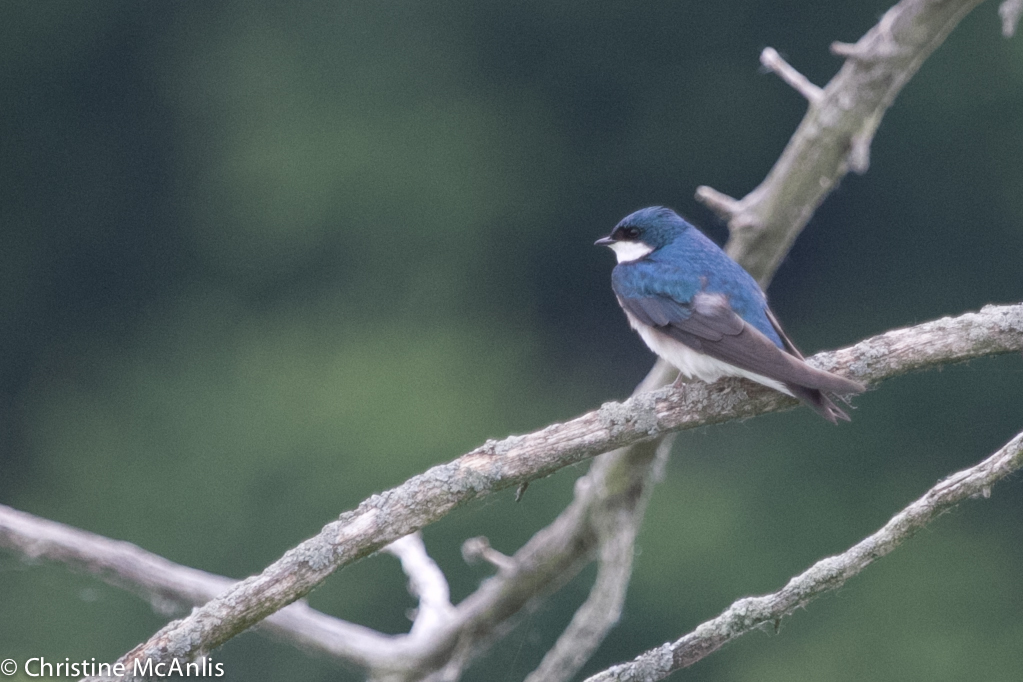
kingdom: Animalia
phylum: Chordata
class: Aves
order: Passeriformes
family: Hirundinidae
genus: Tachycineta
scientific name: Tachycineta bicolor
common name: Tree swallow
